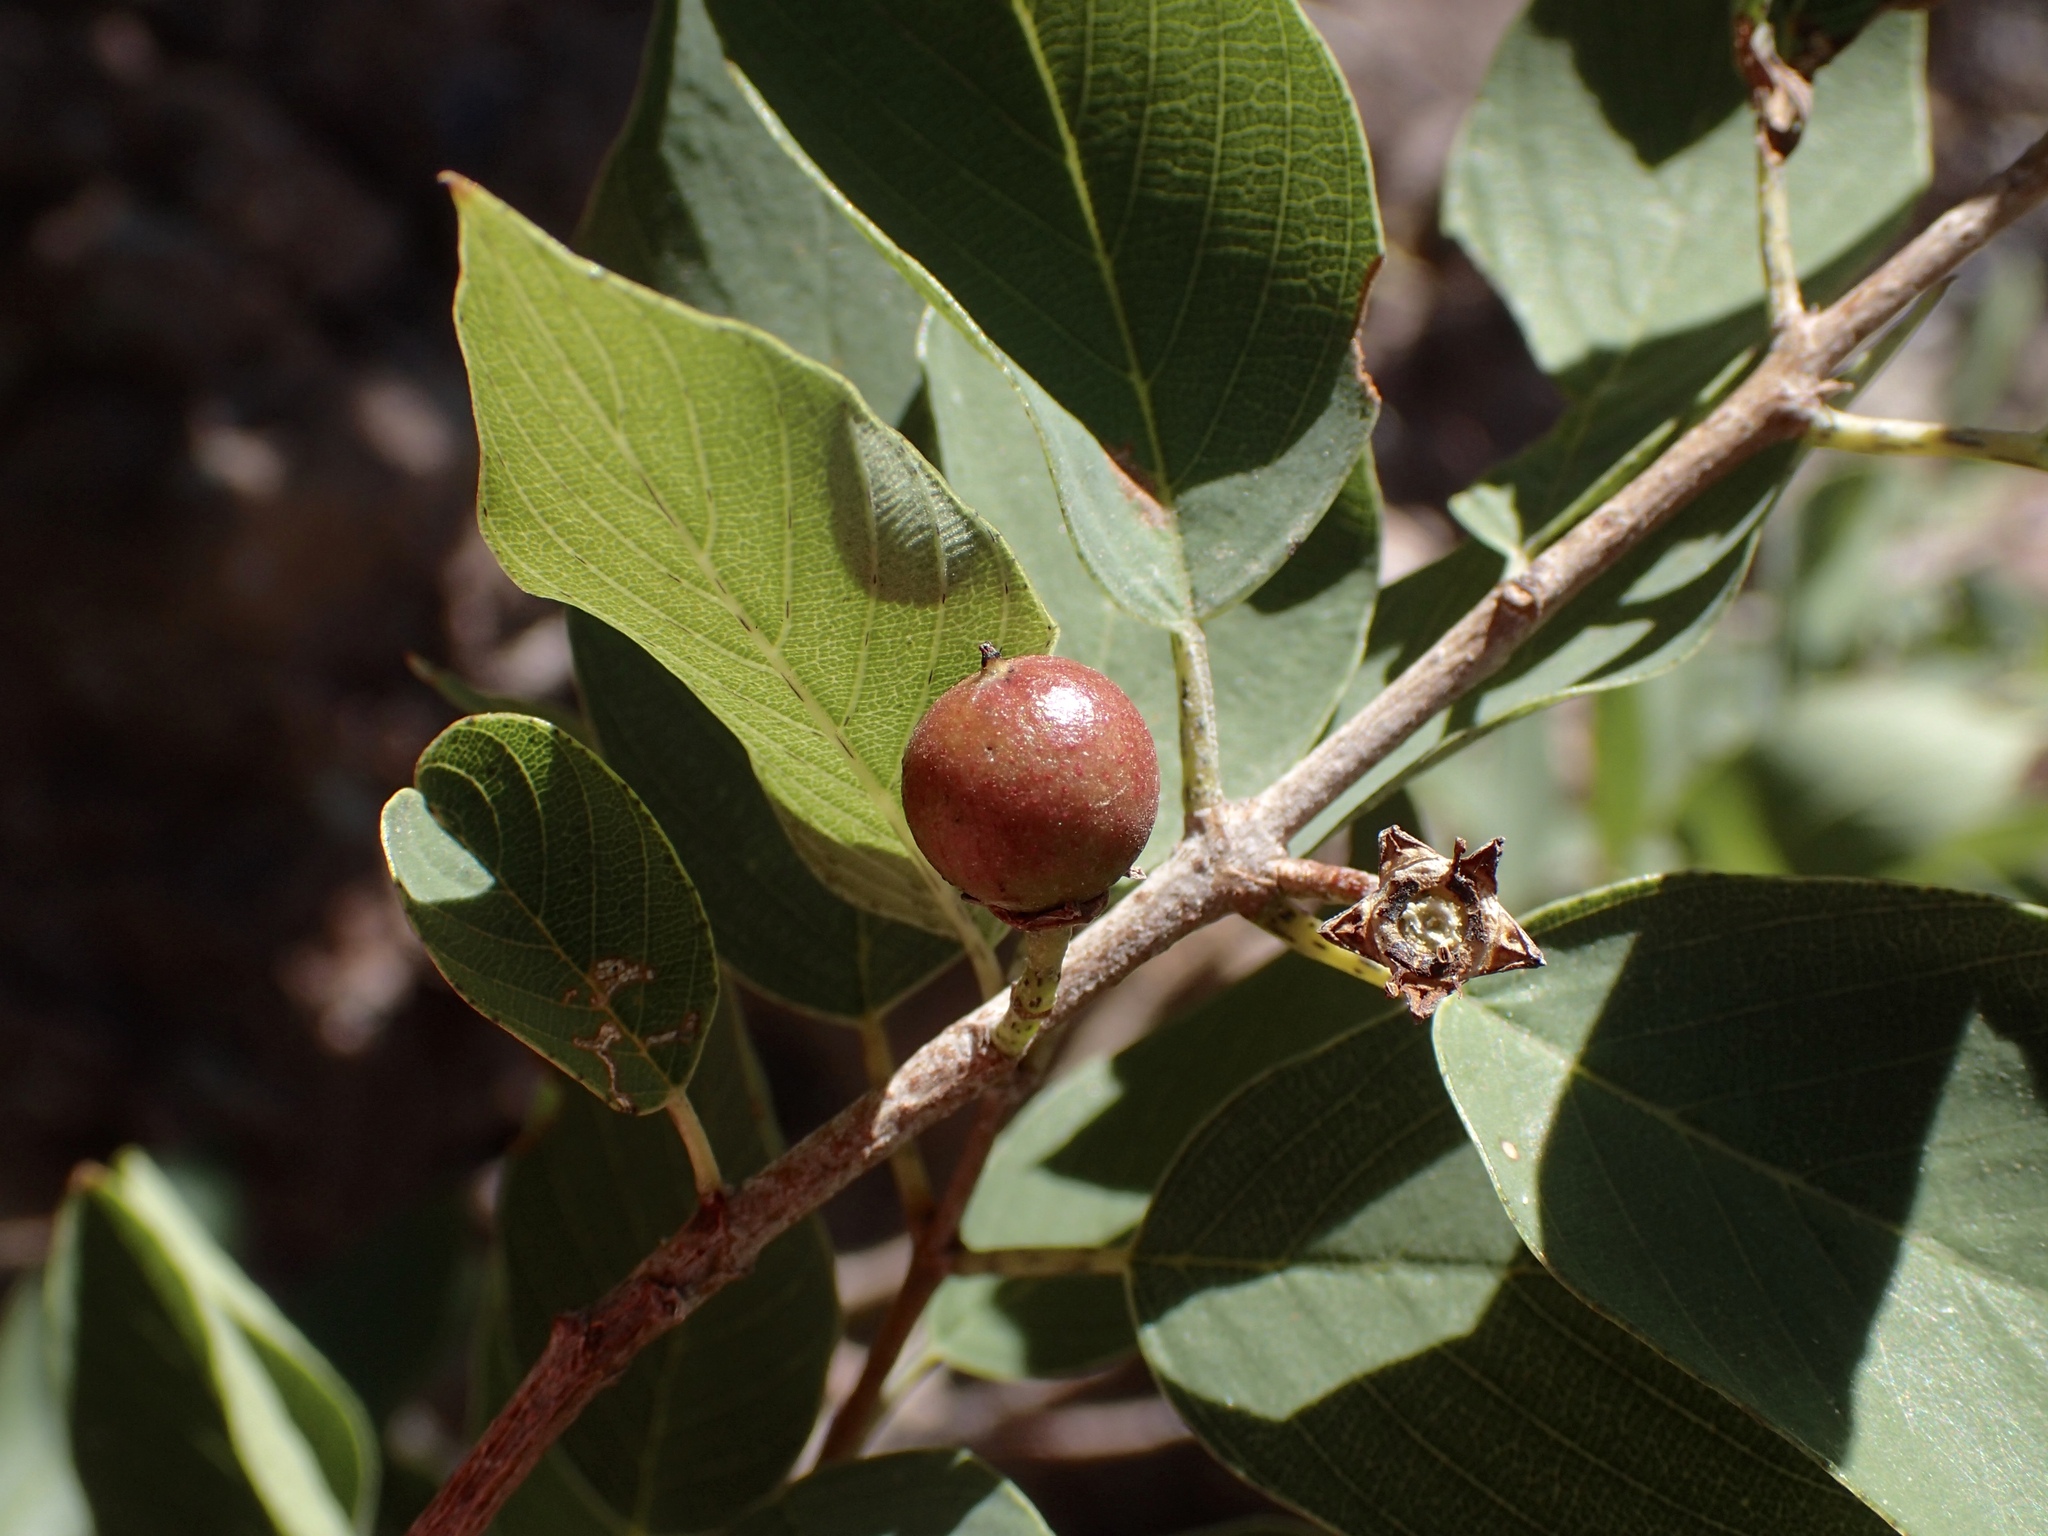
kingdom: Plantae
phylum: Tracheophyta
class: Magnoliopsida
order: Rosales
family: Rhamnaceae
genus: Karwinskia
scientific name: Karwinskia humboldtiana
